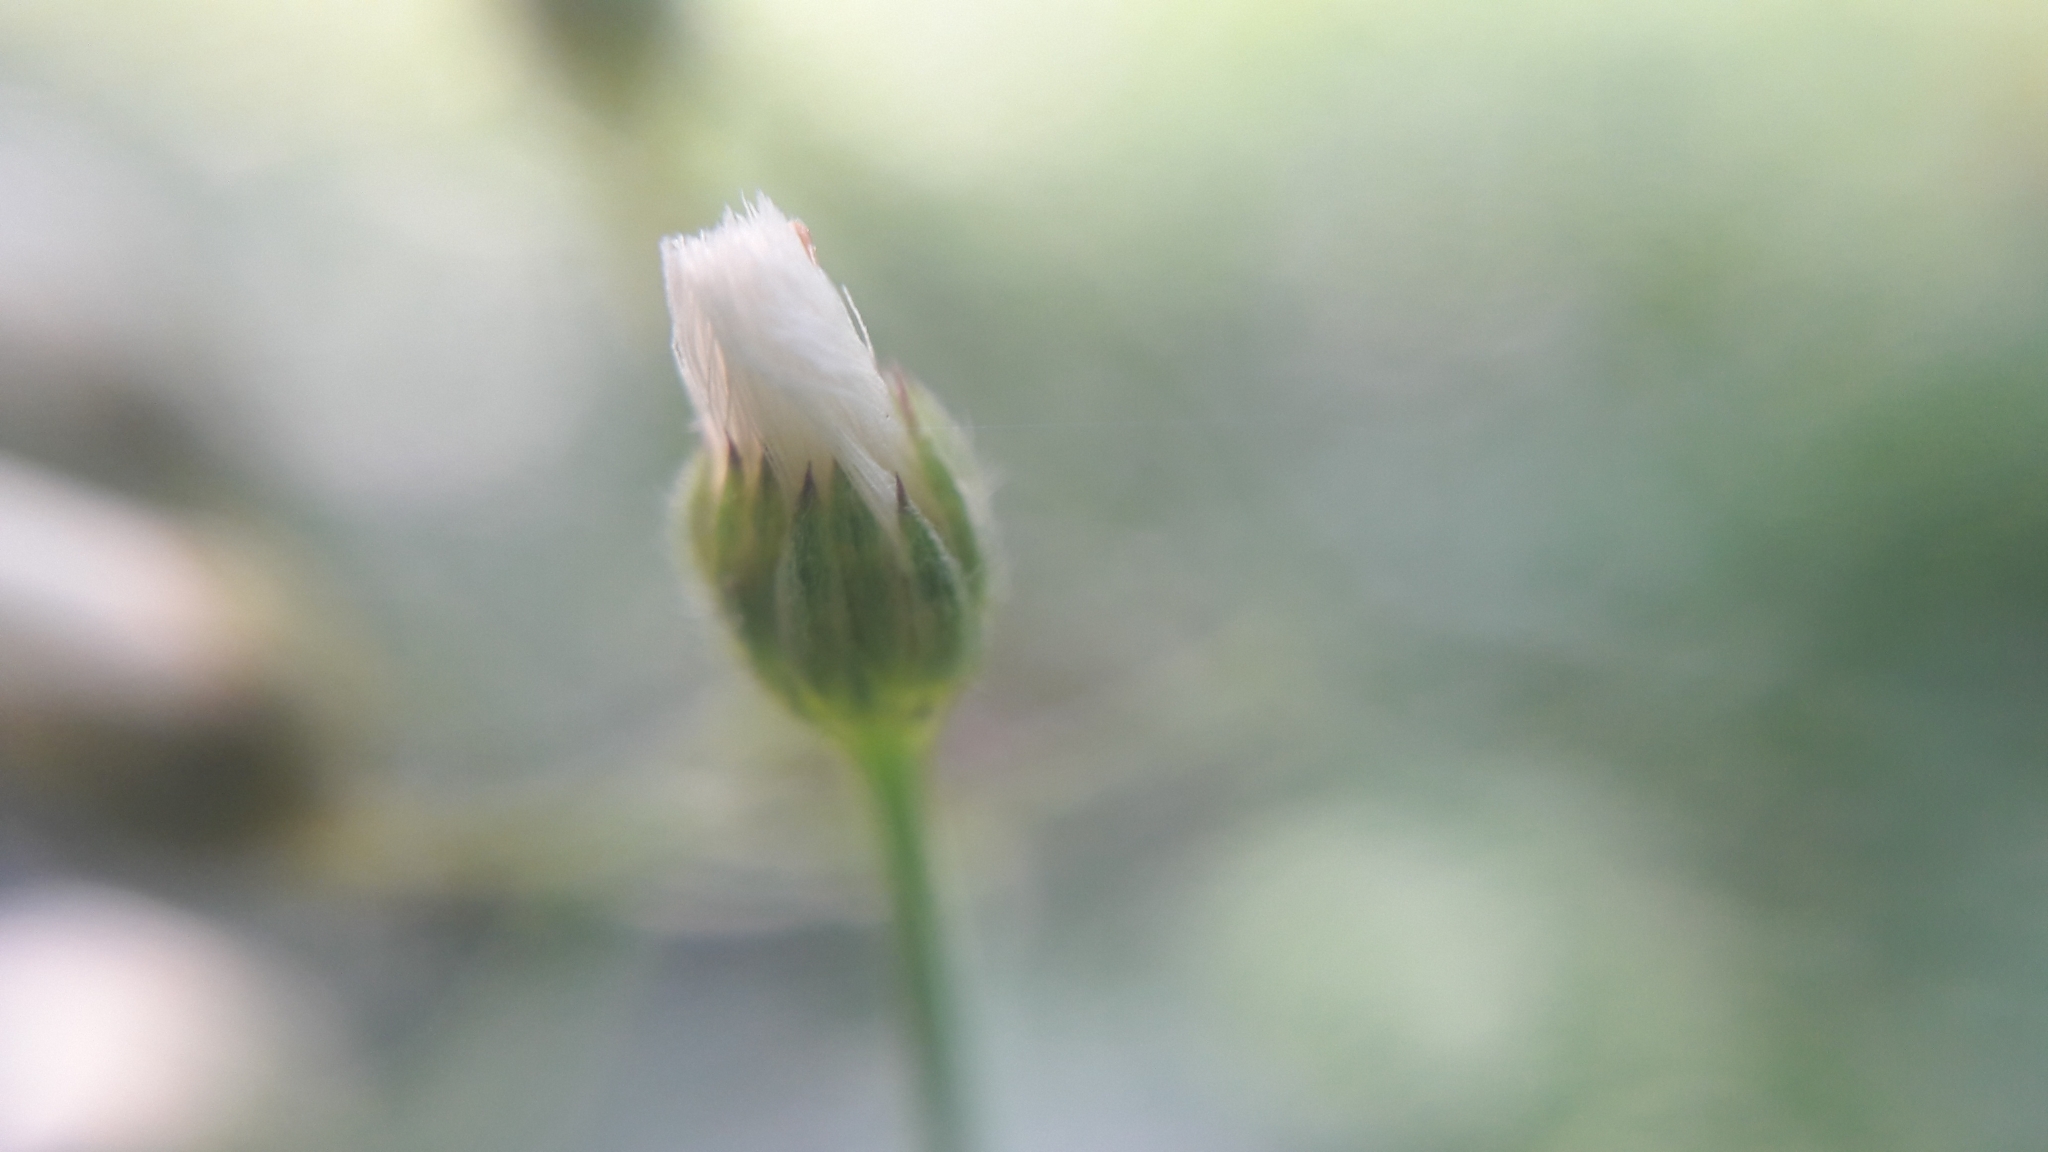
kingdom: Plantae
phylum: Tracheophyta
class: Magnoliopsida
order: Asterales
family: Asteraceae
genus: Cyanthillium
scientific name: Cyanthillium cinereum
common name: Little ironweed
